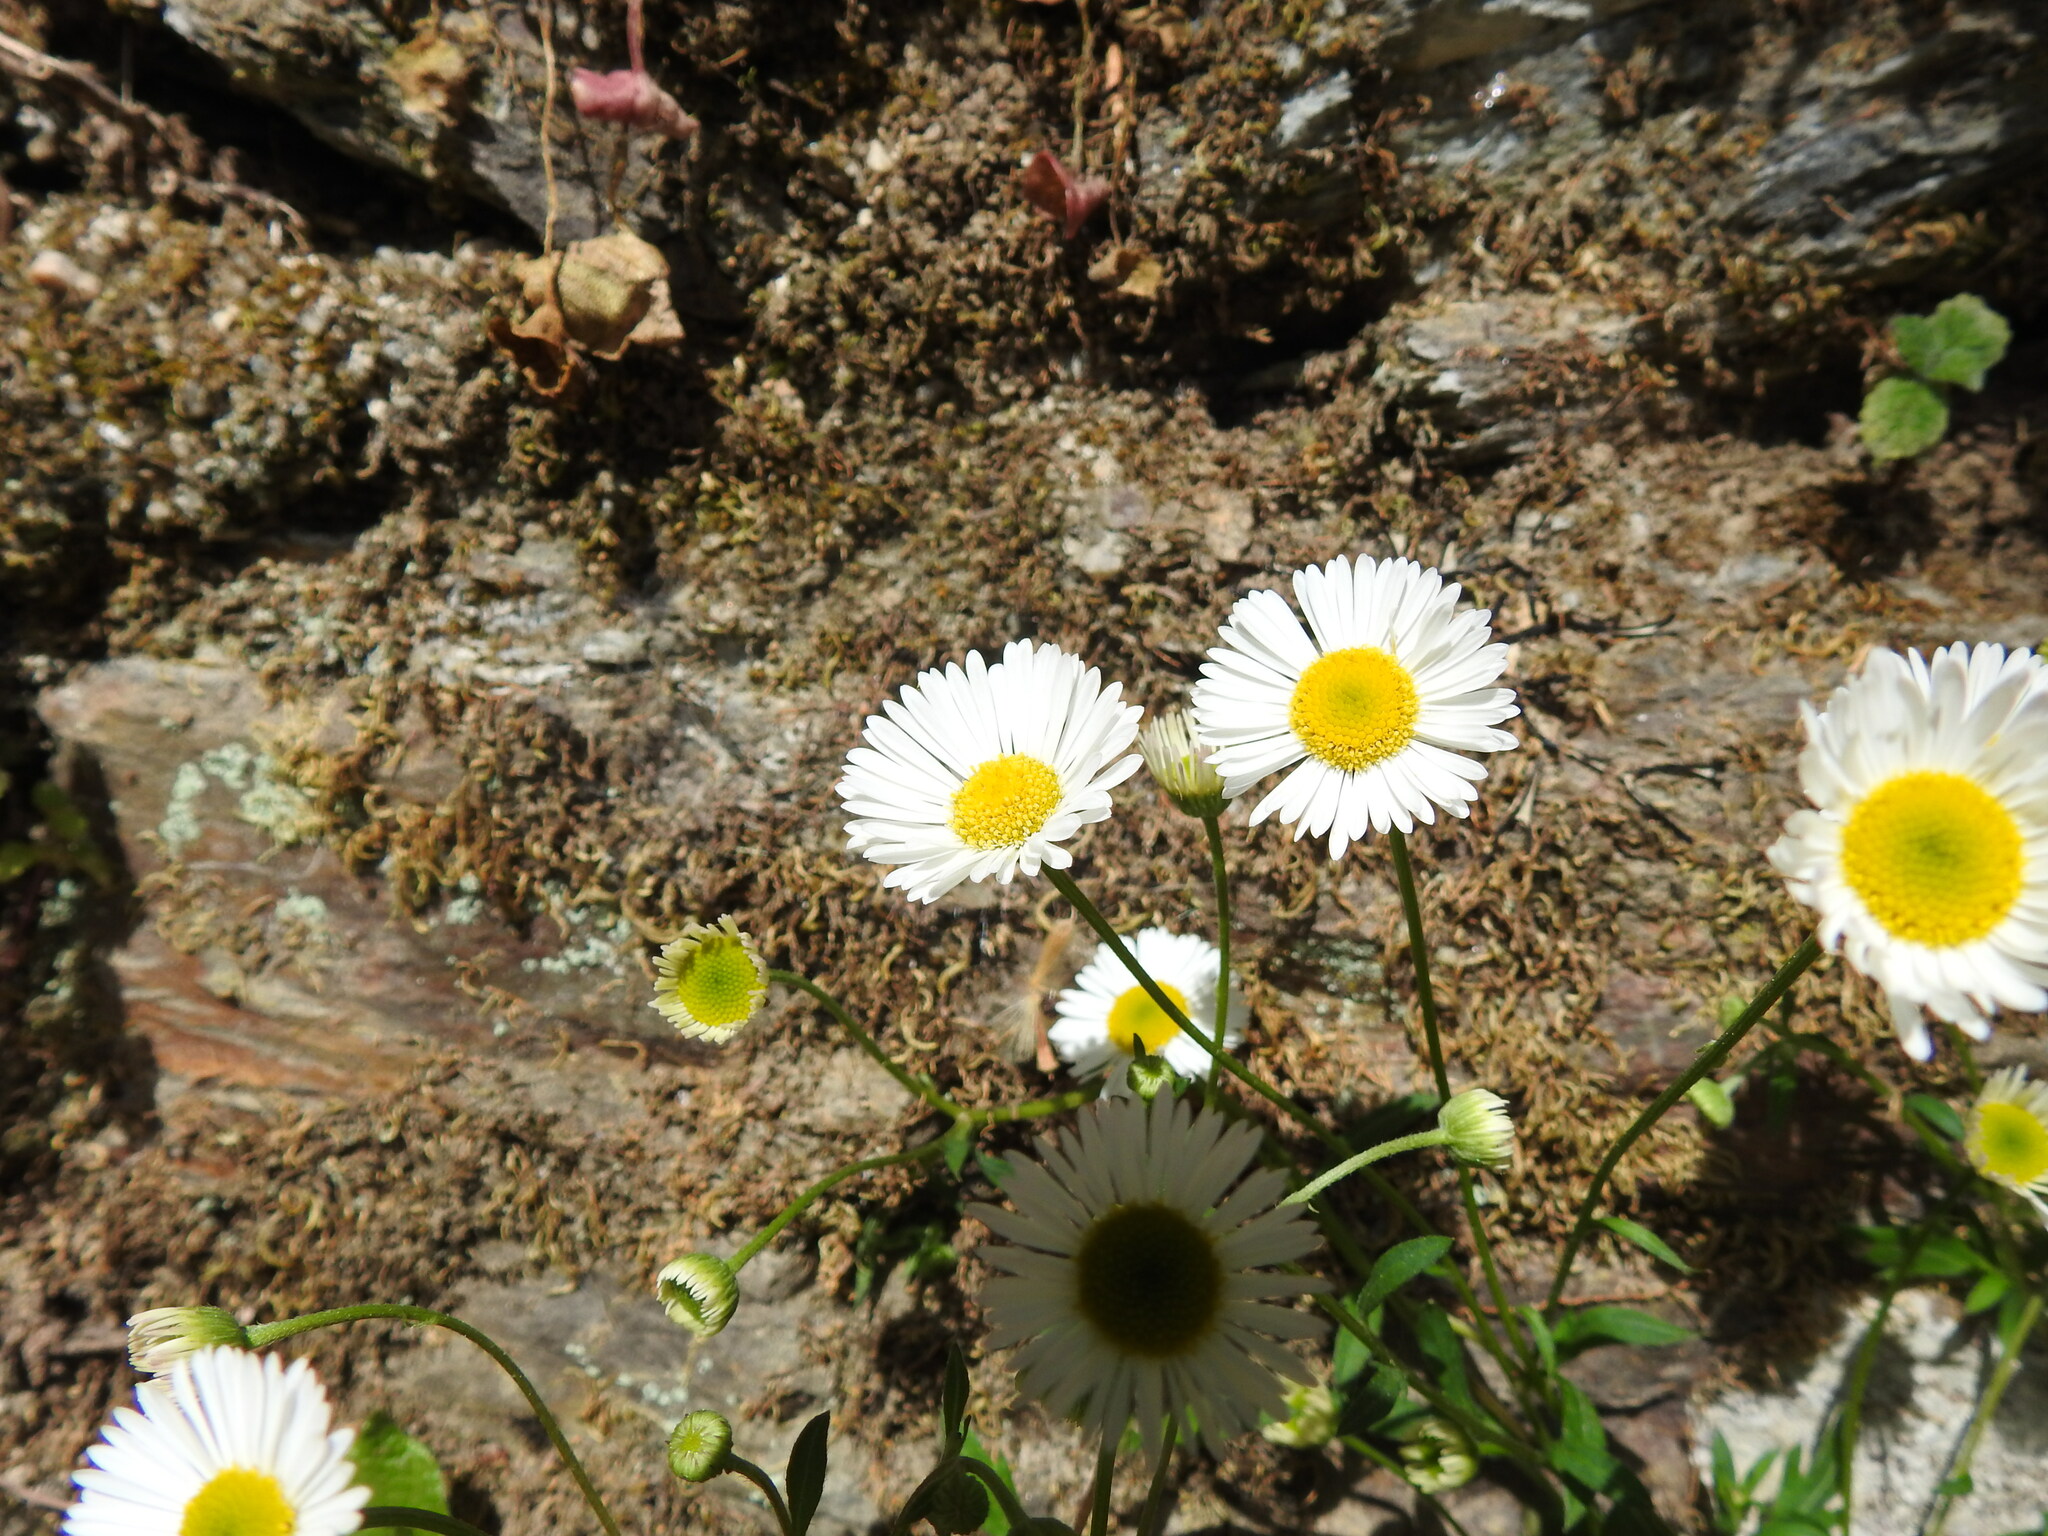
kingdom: Plantae
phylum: Tracheophyta
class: Magnoliopsida
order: Asterales
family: Asteraceae
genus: Erigeron
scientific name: Erigeron karvinskianus
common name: Mexican fleabane
